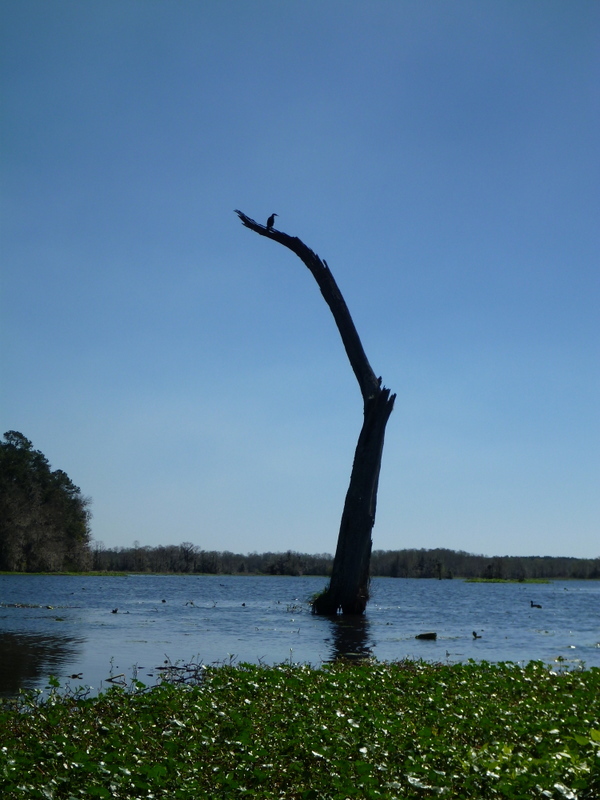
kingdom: Animalia
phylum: Chordata
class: Aves
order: Suliformes
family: Phalacrocoracidae
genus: Phalacrocorax
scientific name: Phalacrocorax auritus
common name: Double-crested cormorant
